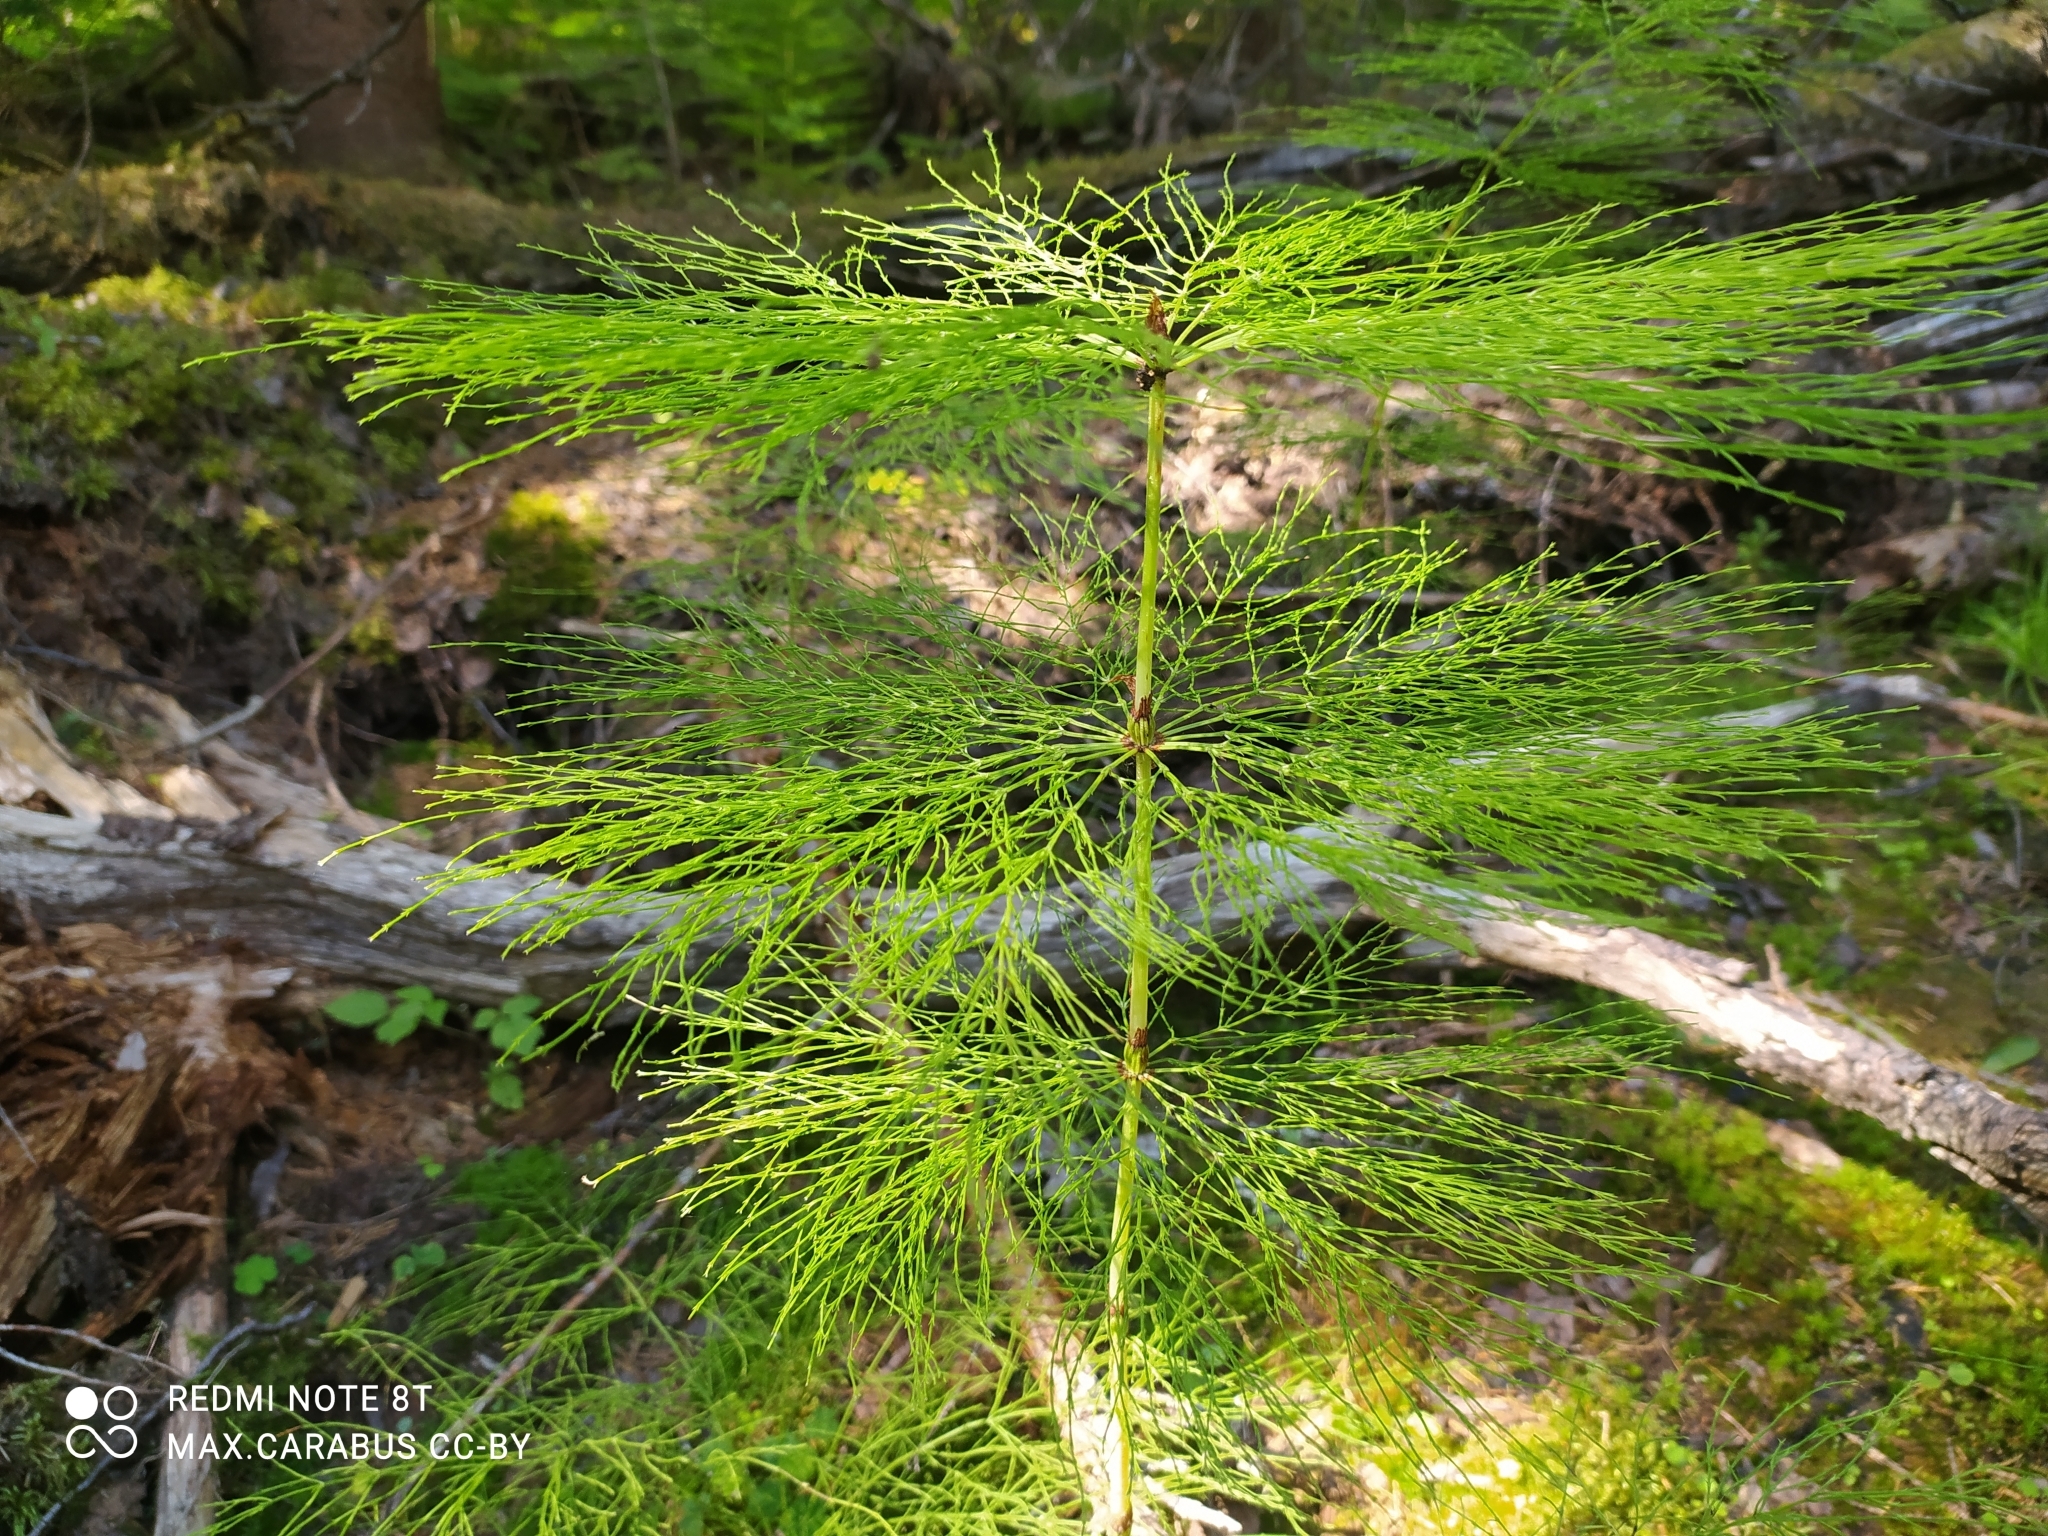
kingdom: Plantae
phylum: Tracheophyta
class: Polypodiopsida
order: Equisetales
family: Equisetaceae
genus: Equisetum
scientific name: Equisetum sylvaticum
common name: Wood horsetail
